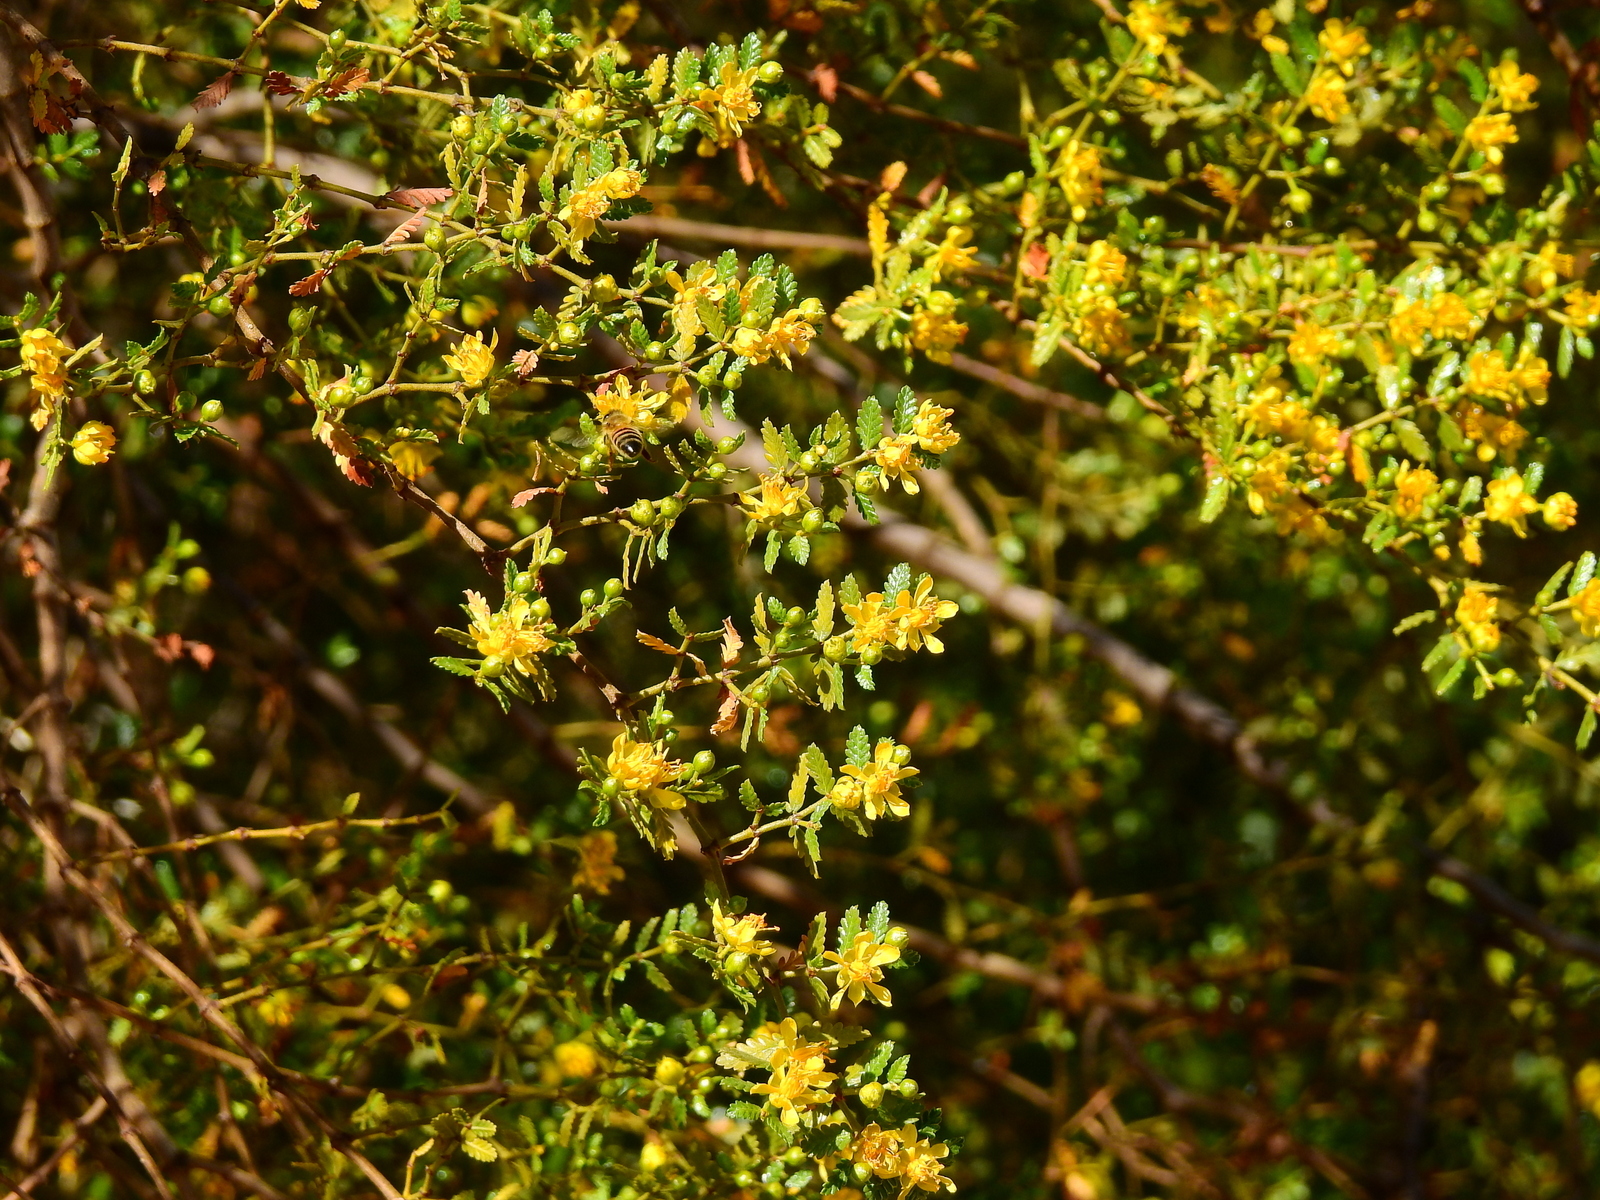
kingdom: Plantae
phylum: Tracheophyta
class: Magnoliopsida
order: Zygophyllales
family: Zygophyllaceae
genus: Larrea
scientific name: Larrea nitida
